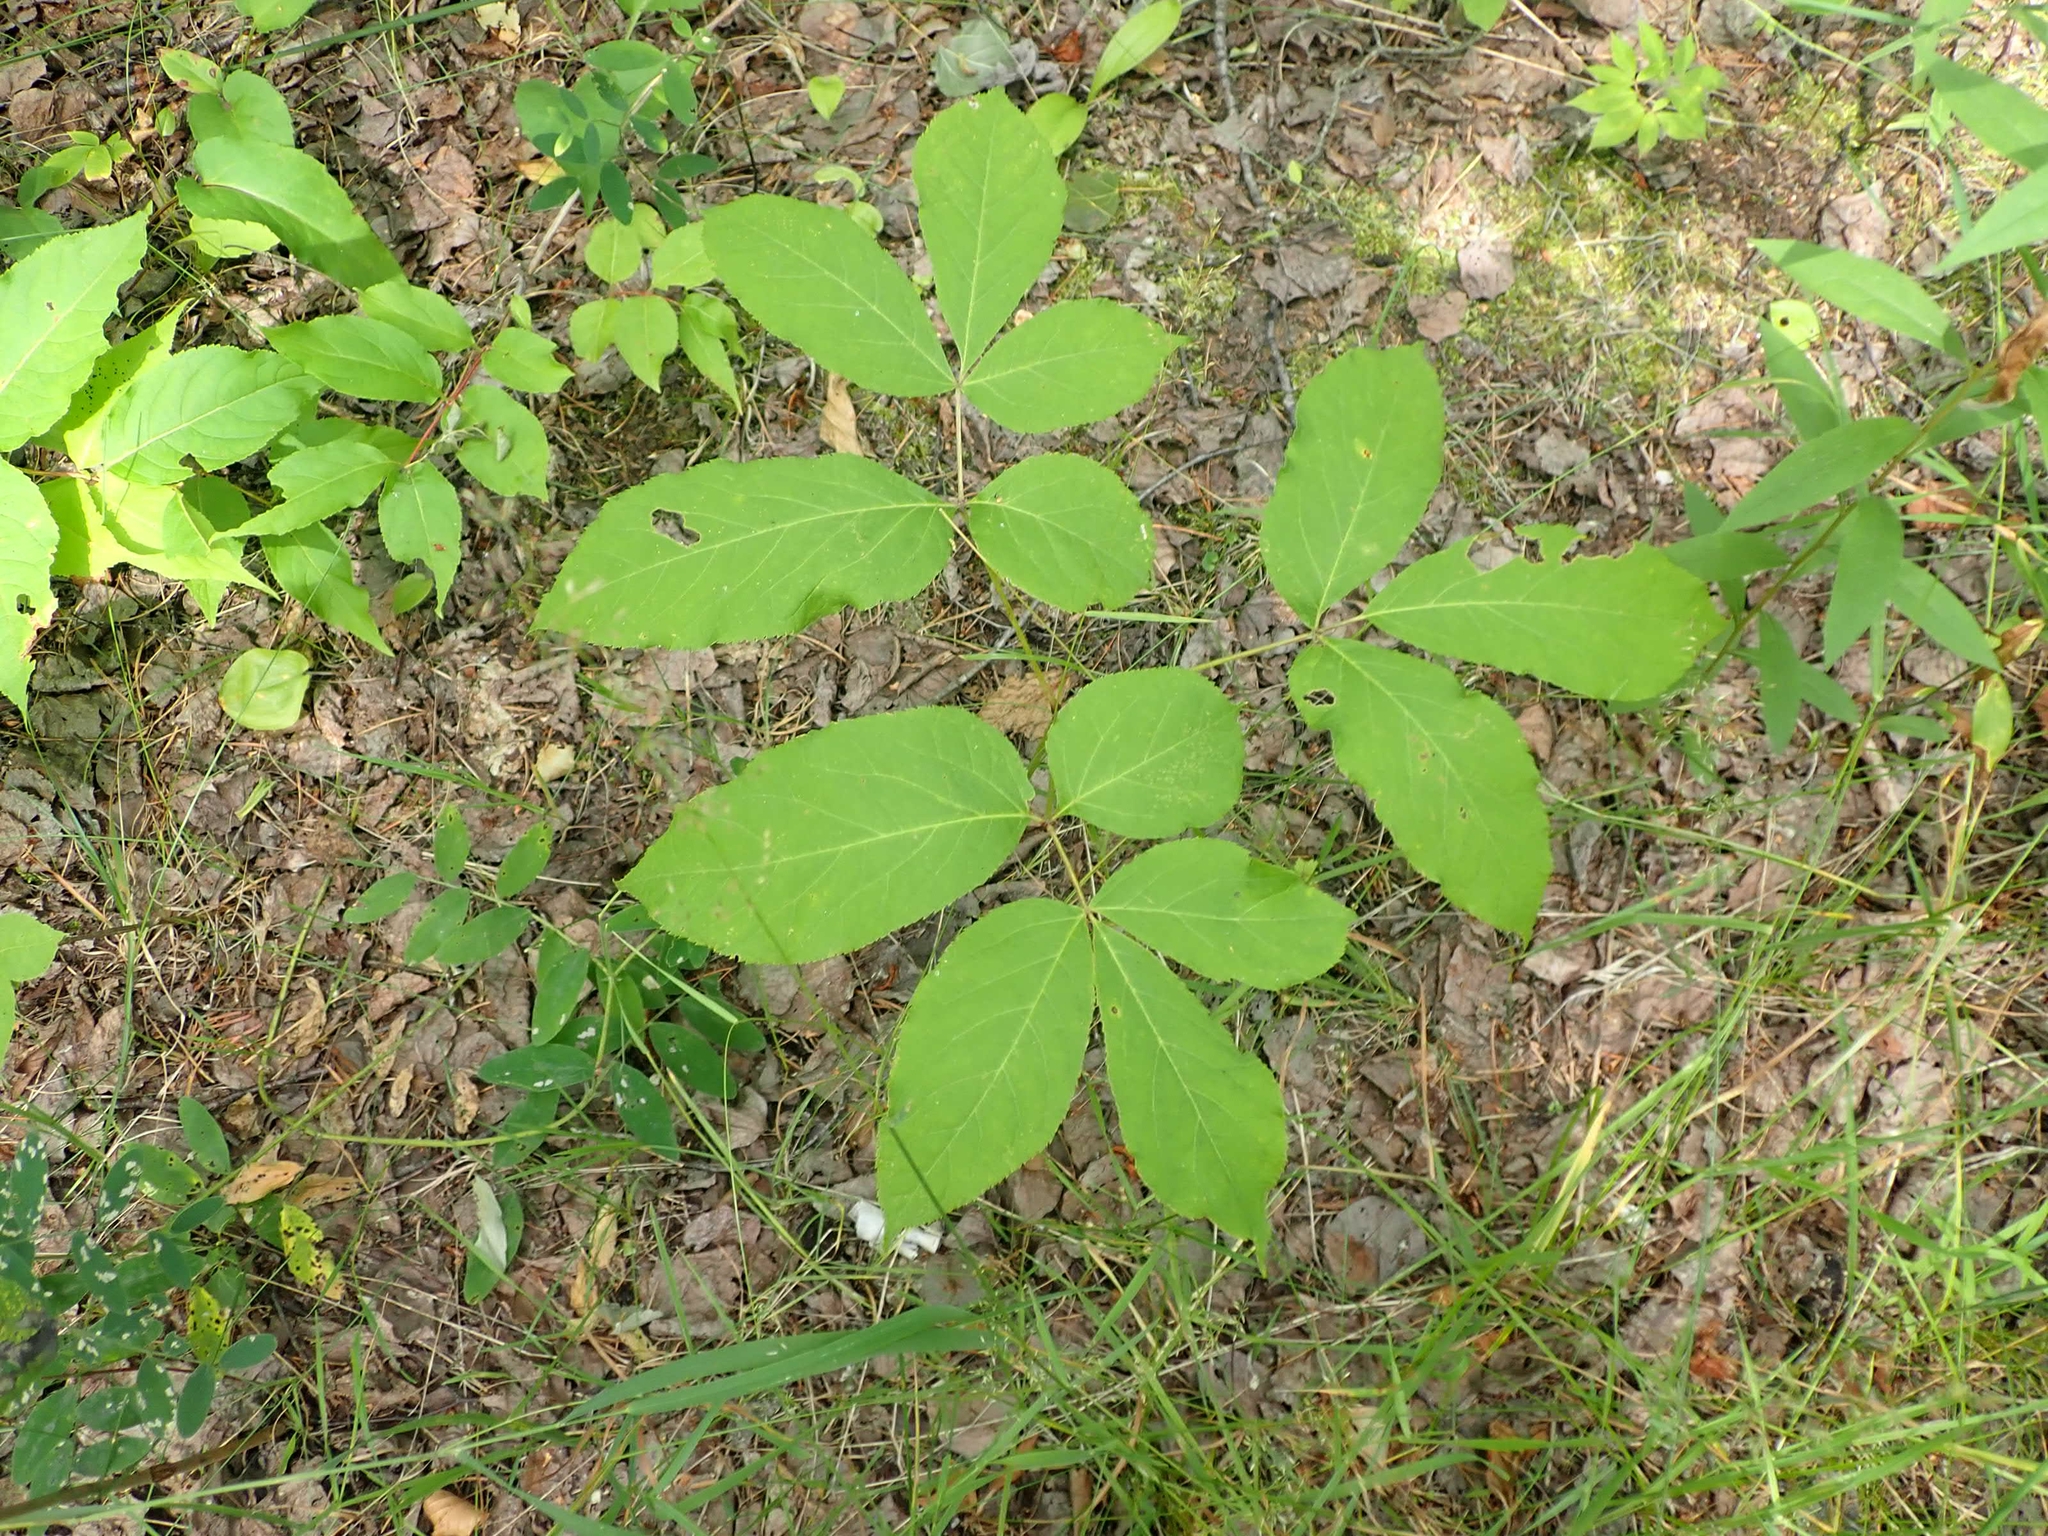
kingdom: Plantae
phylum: Tracheophyta
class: Magnoliopsida
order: Apiales
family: Araliaceae
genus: Aralia
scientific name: Aralia nudicaulis
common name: Wild sarsaparilla
